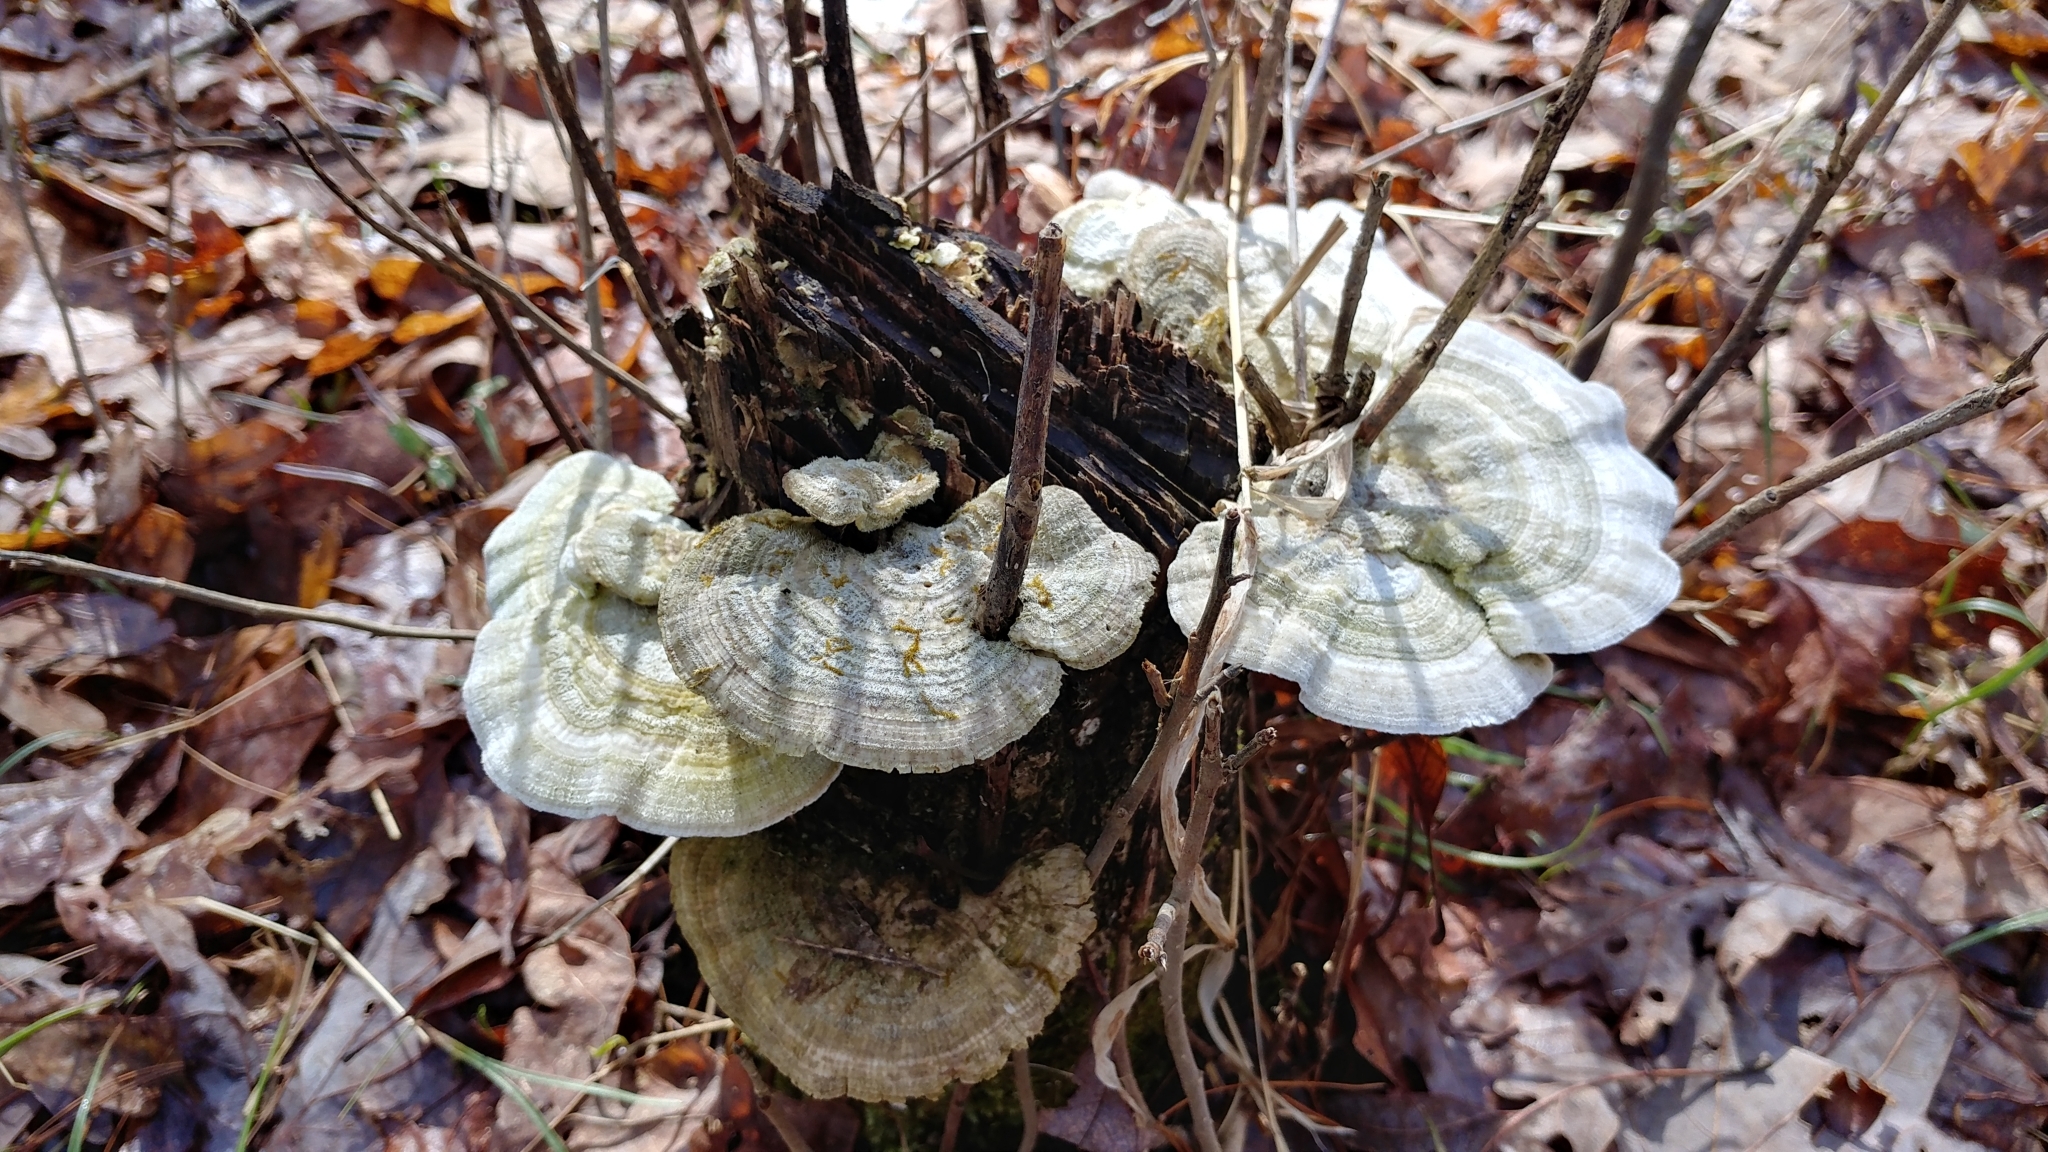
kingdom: Fungi
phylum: Basidiomycota
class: Agaricomycetes
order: Polyporales
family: Polyporaceae
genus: Lenzites
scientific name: Lenzites betulinus
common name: Birch mazegill
